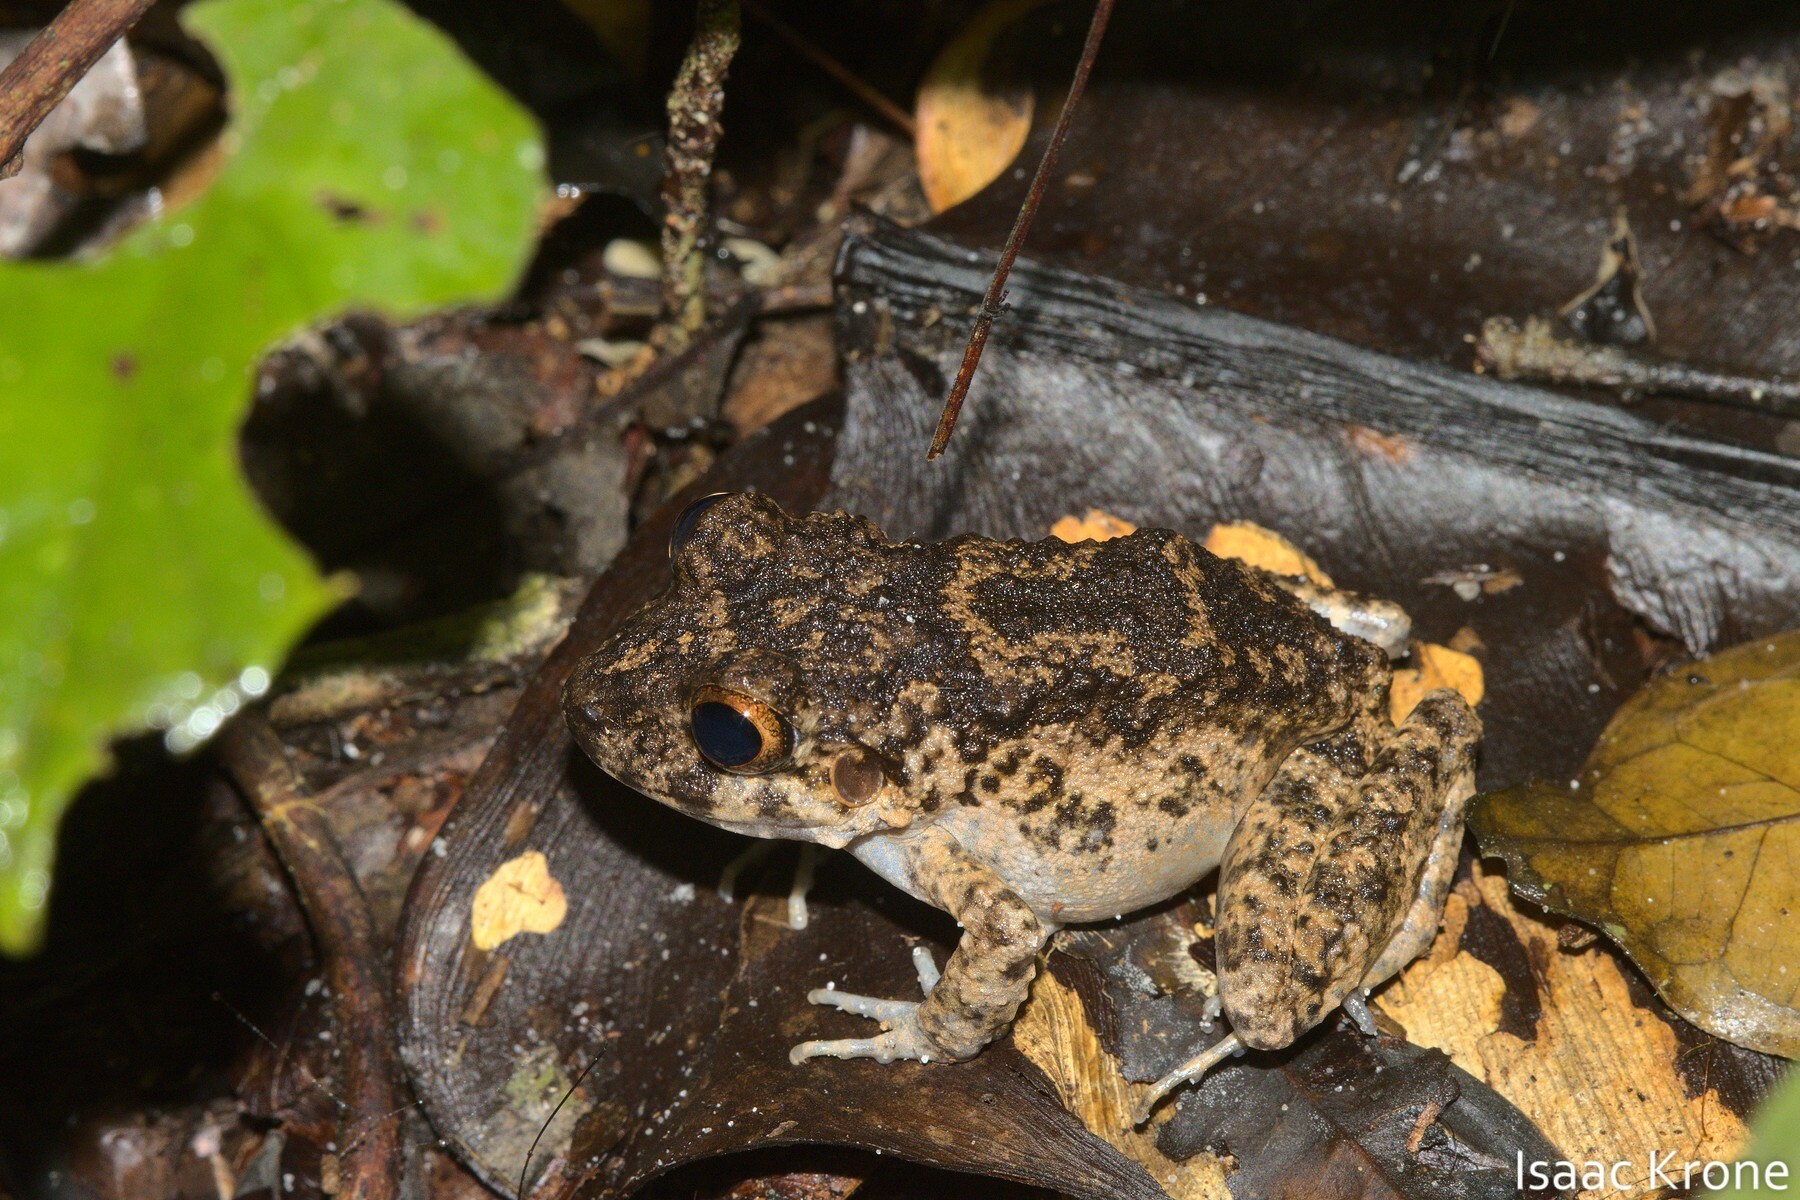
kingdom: Animalia
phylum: Chordata
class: Amphibia
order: Anura
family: Craugastoridae
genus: Oreobates
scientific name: Oreobates quixensis
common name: Common big-headed frog
